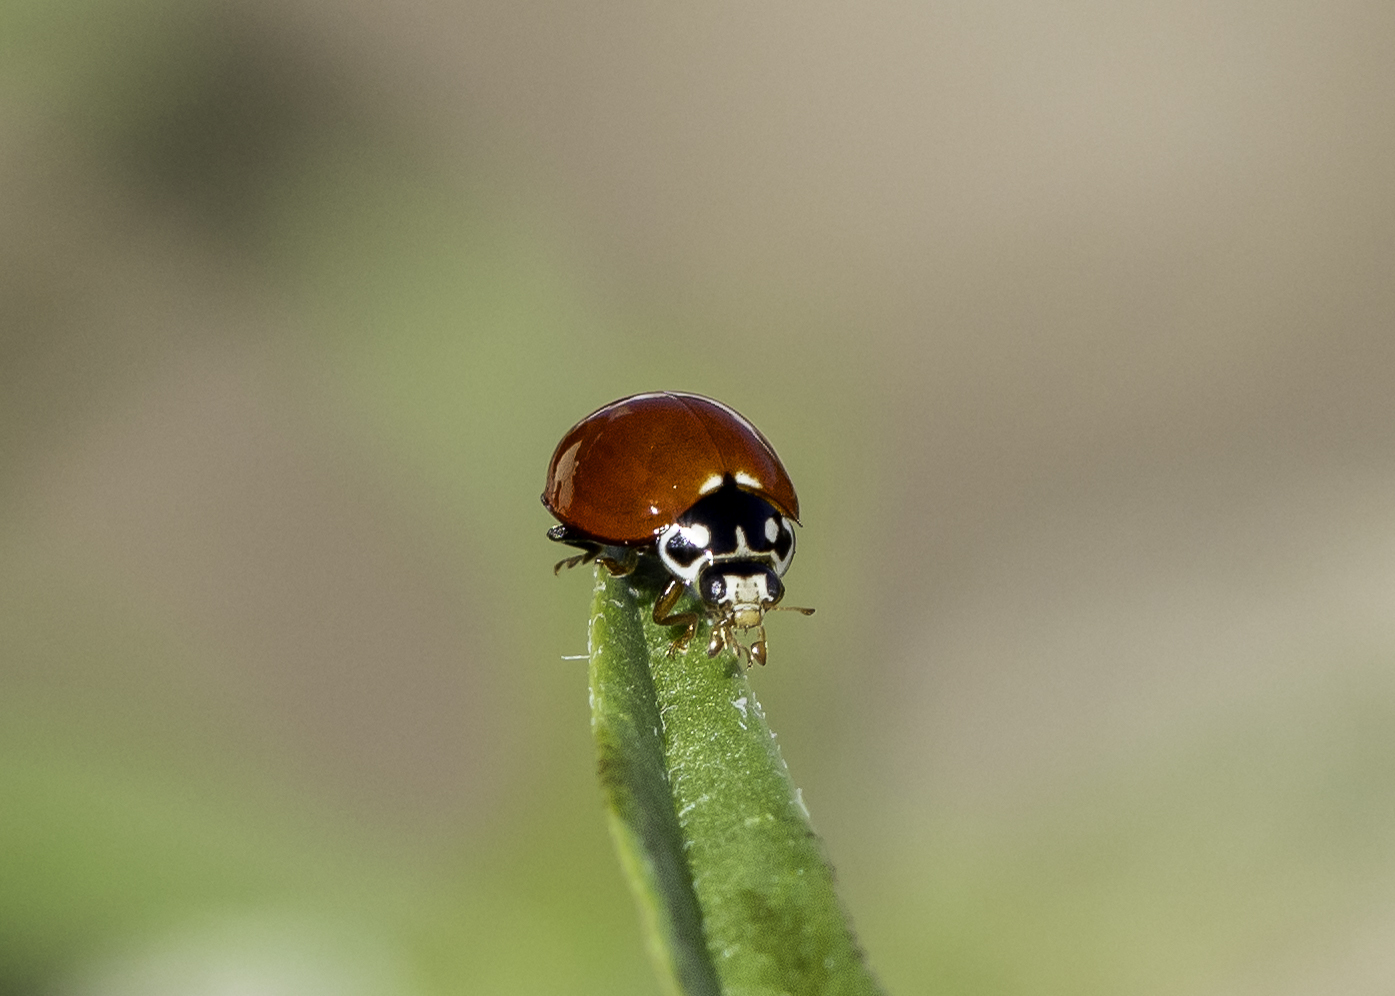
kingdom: Animalia
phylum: Arthropoda
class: Insecta
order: Coleoptera
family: Coccinellidae
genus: Cycloneda
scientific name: Cycloneda sanguinea
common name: Ladybird beetle
